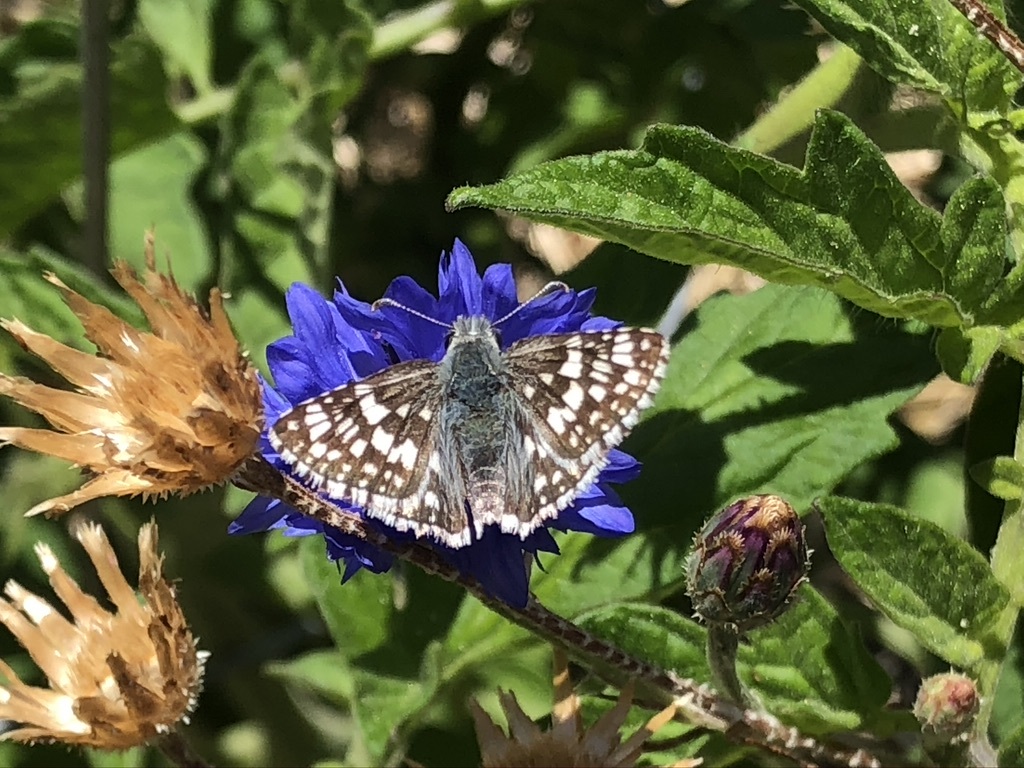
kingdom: Animalia
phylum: Arthropoda
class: Insecta
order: Lepidoptera
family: Hesperiidae
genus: Burnsius
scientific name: Burnsius communis
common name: Common checkered-skipper
